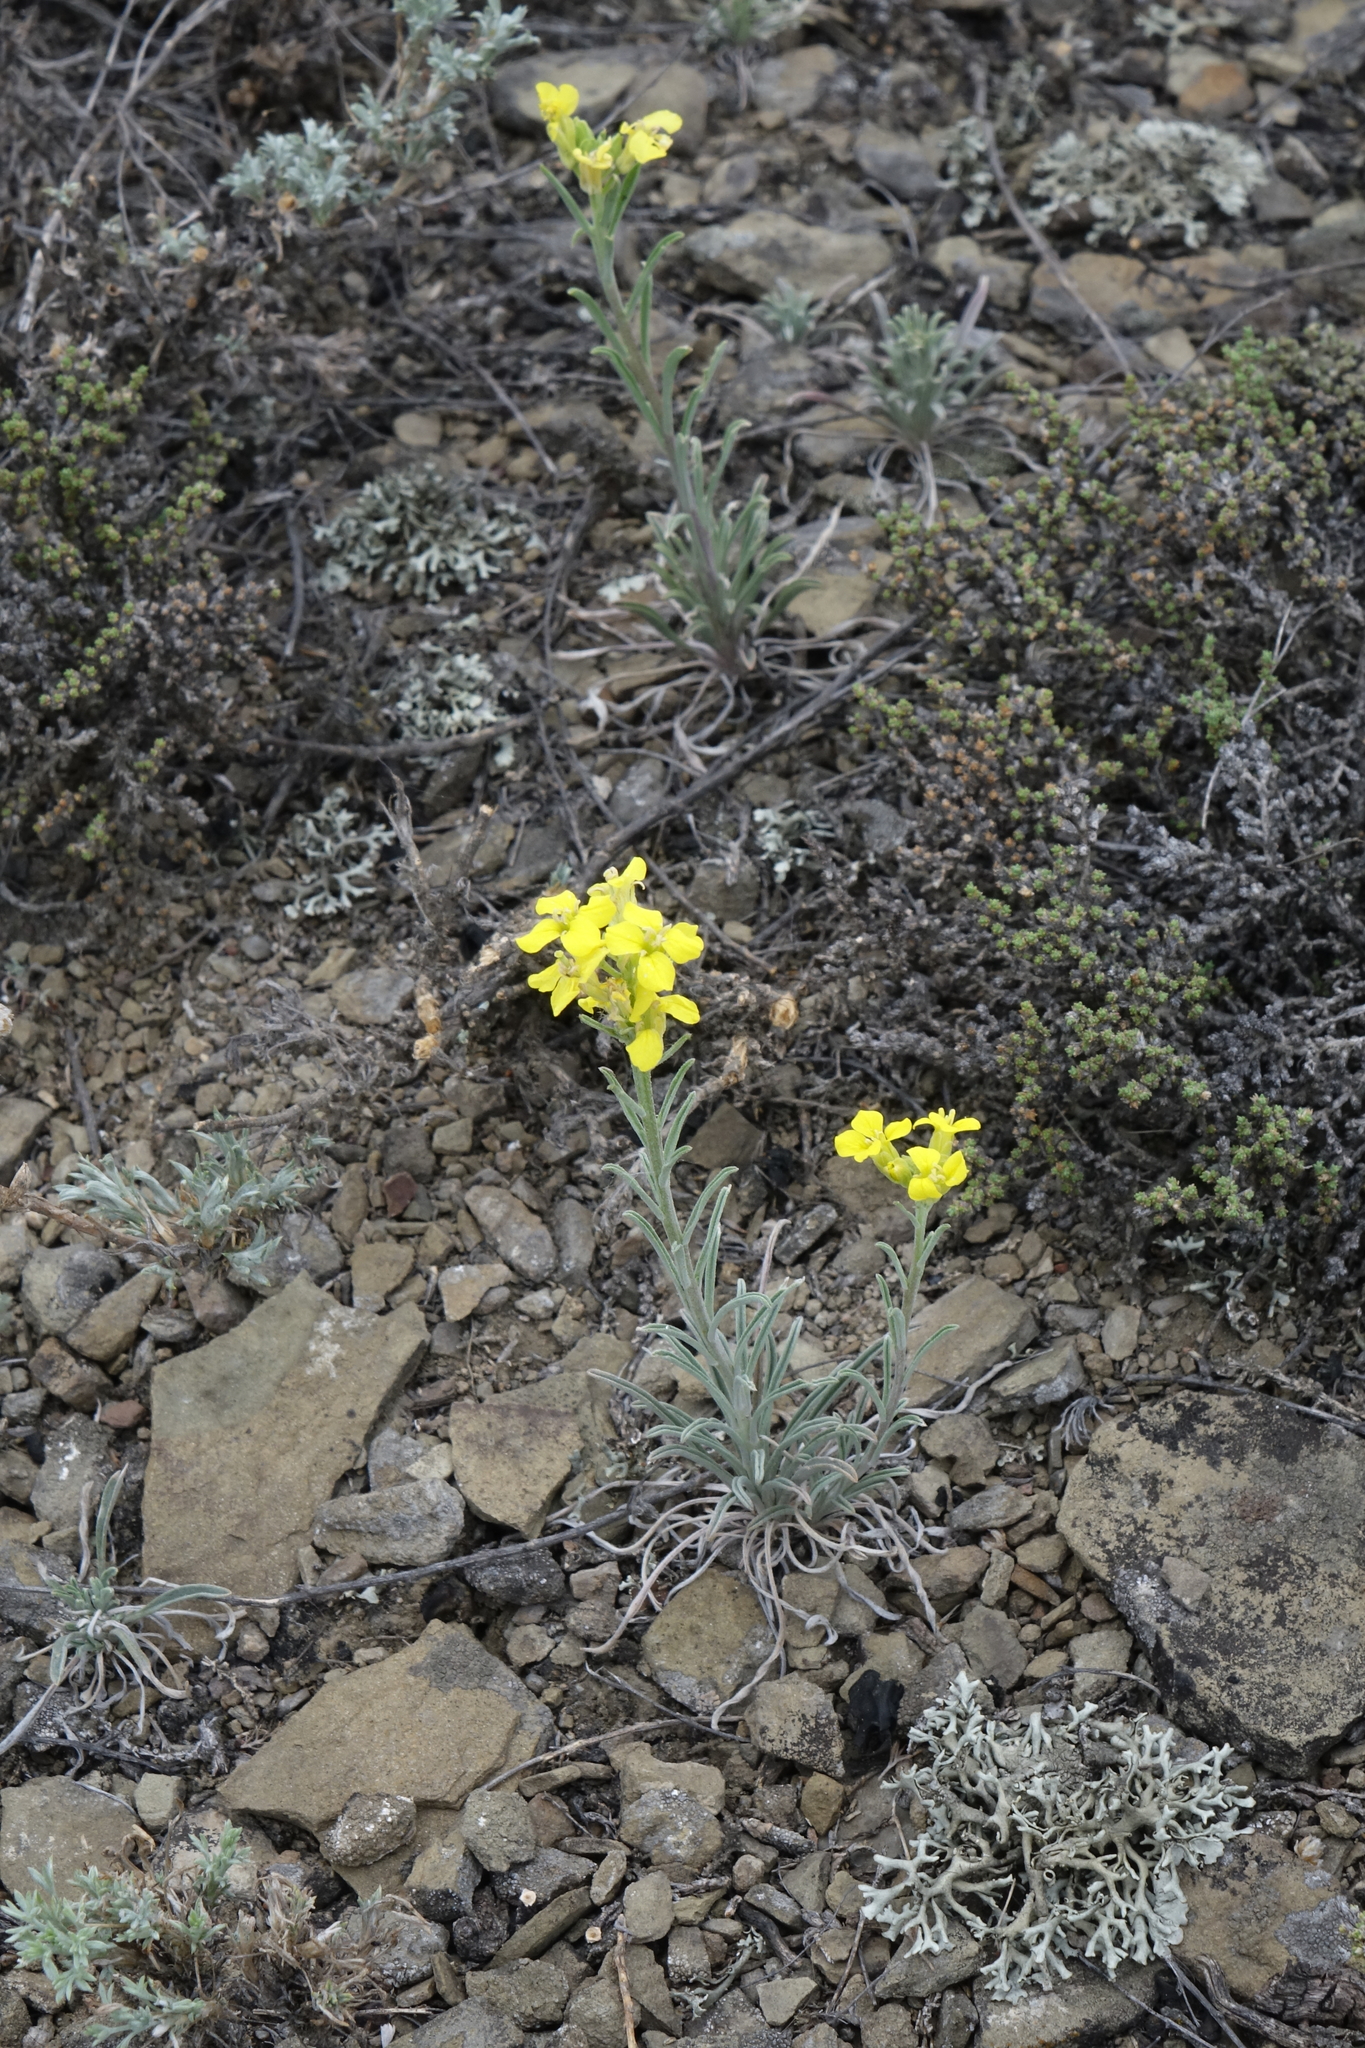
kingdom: Plantae
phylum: Tracheophyta
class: Magnoliopsida
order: Brassicales
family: Brassicaceae
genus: Erysimum
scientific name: Erysimum flavum
